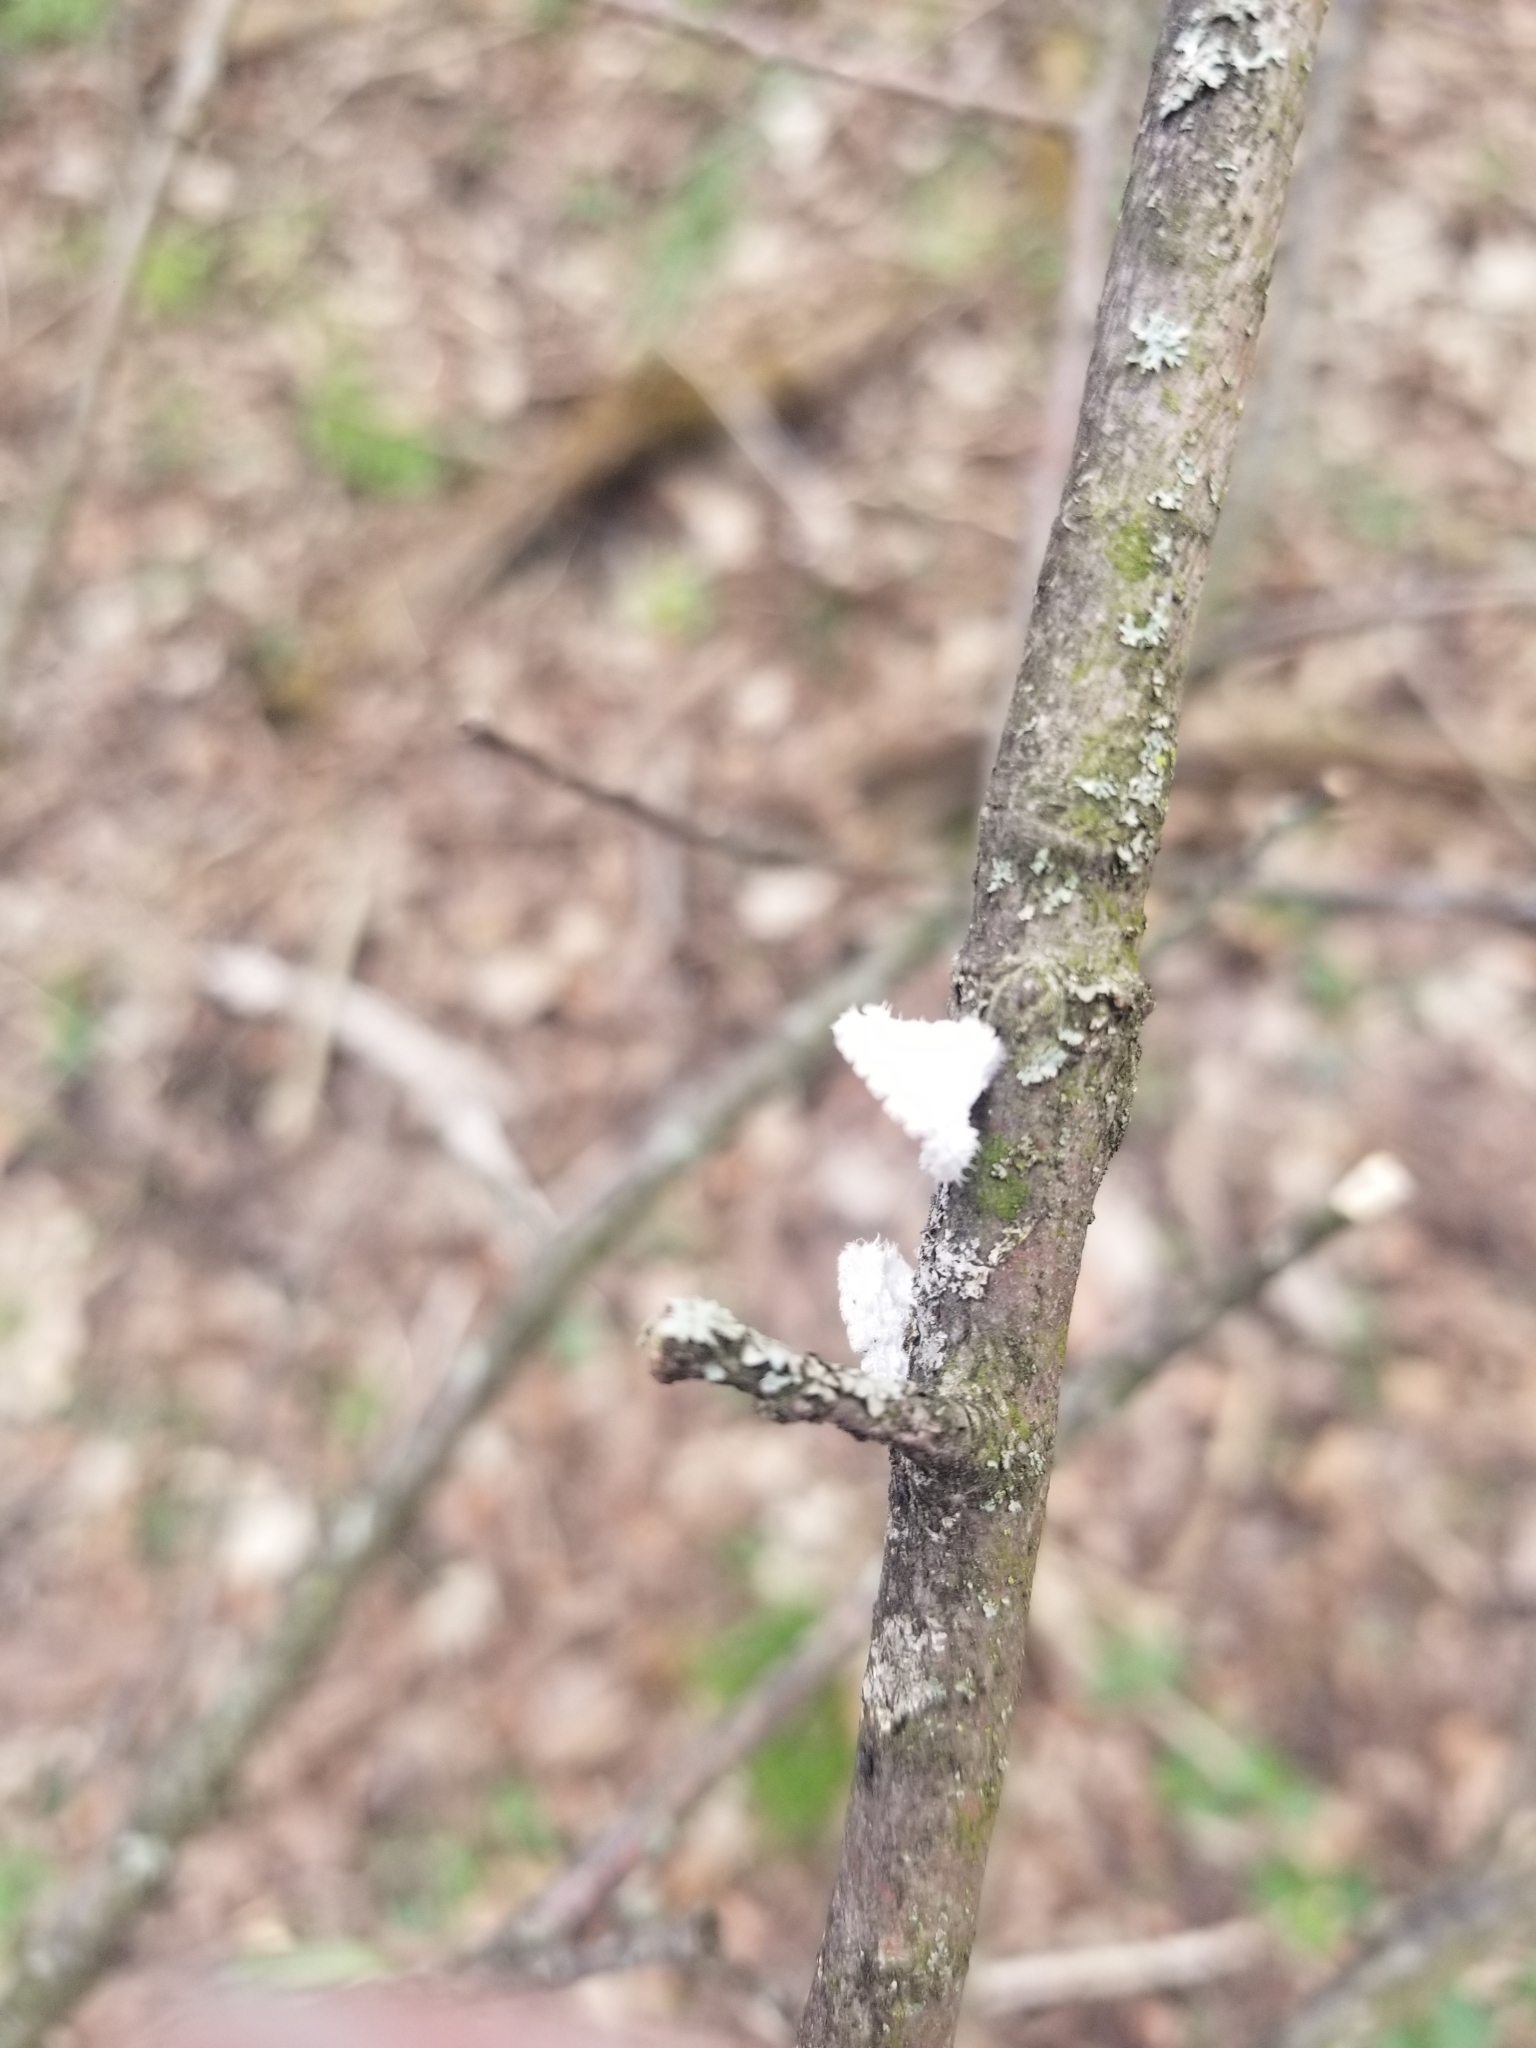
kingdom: Fungi
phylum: Basidiomycota
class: Agaricomycetes
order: Agaricales
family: Schizophyllaceae
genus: Schizophyllum
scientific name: Schizophyllum commune
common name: Common porecrust
